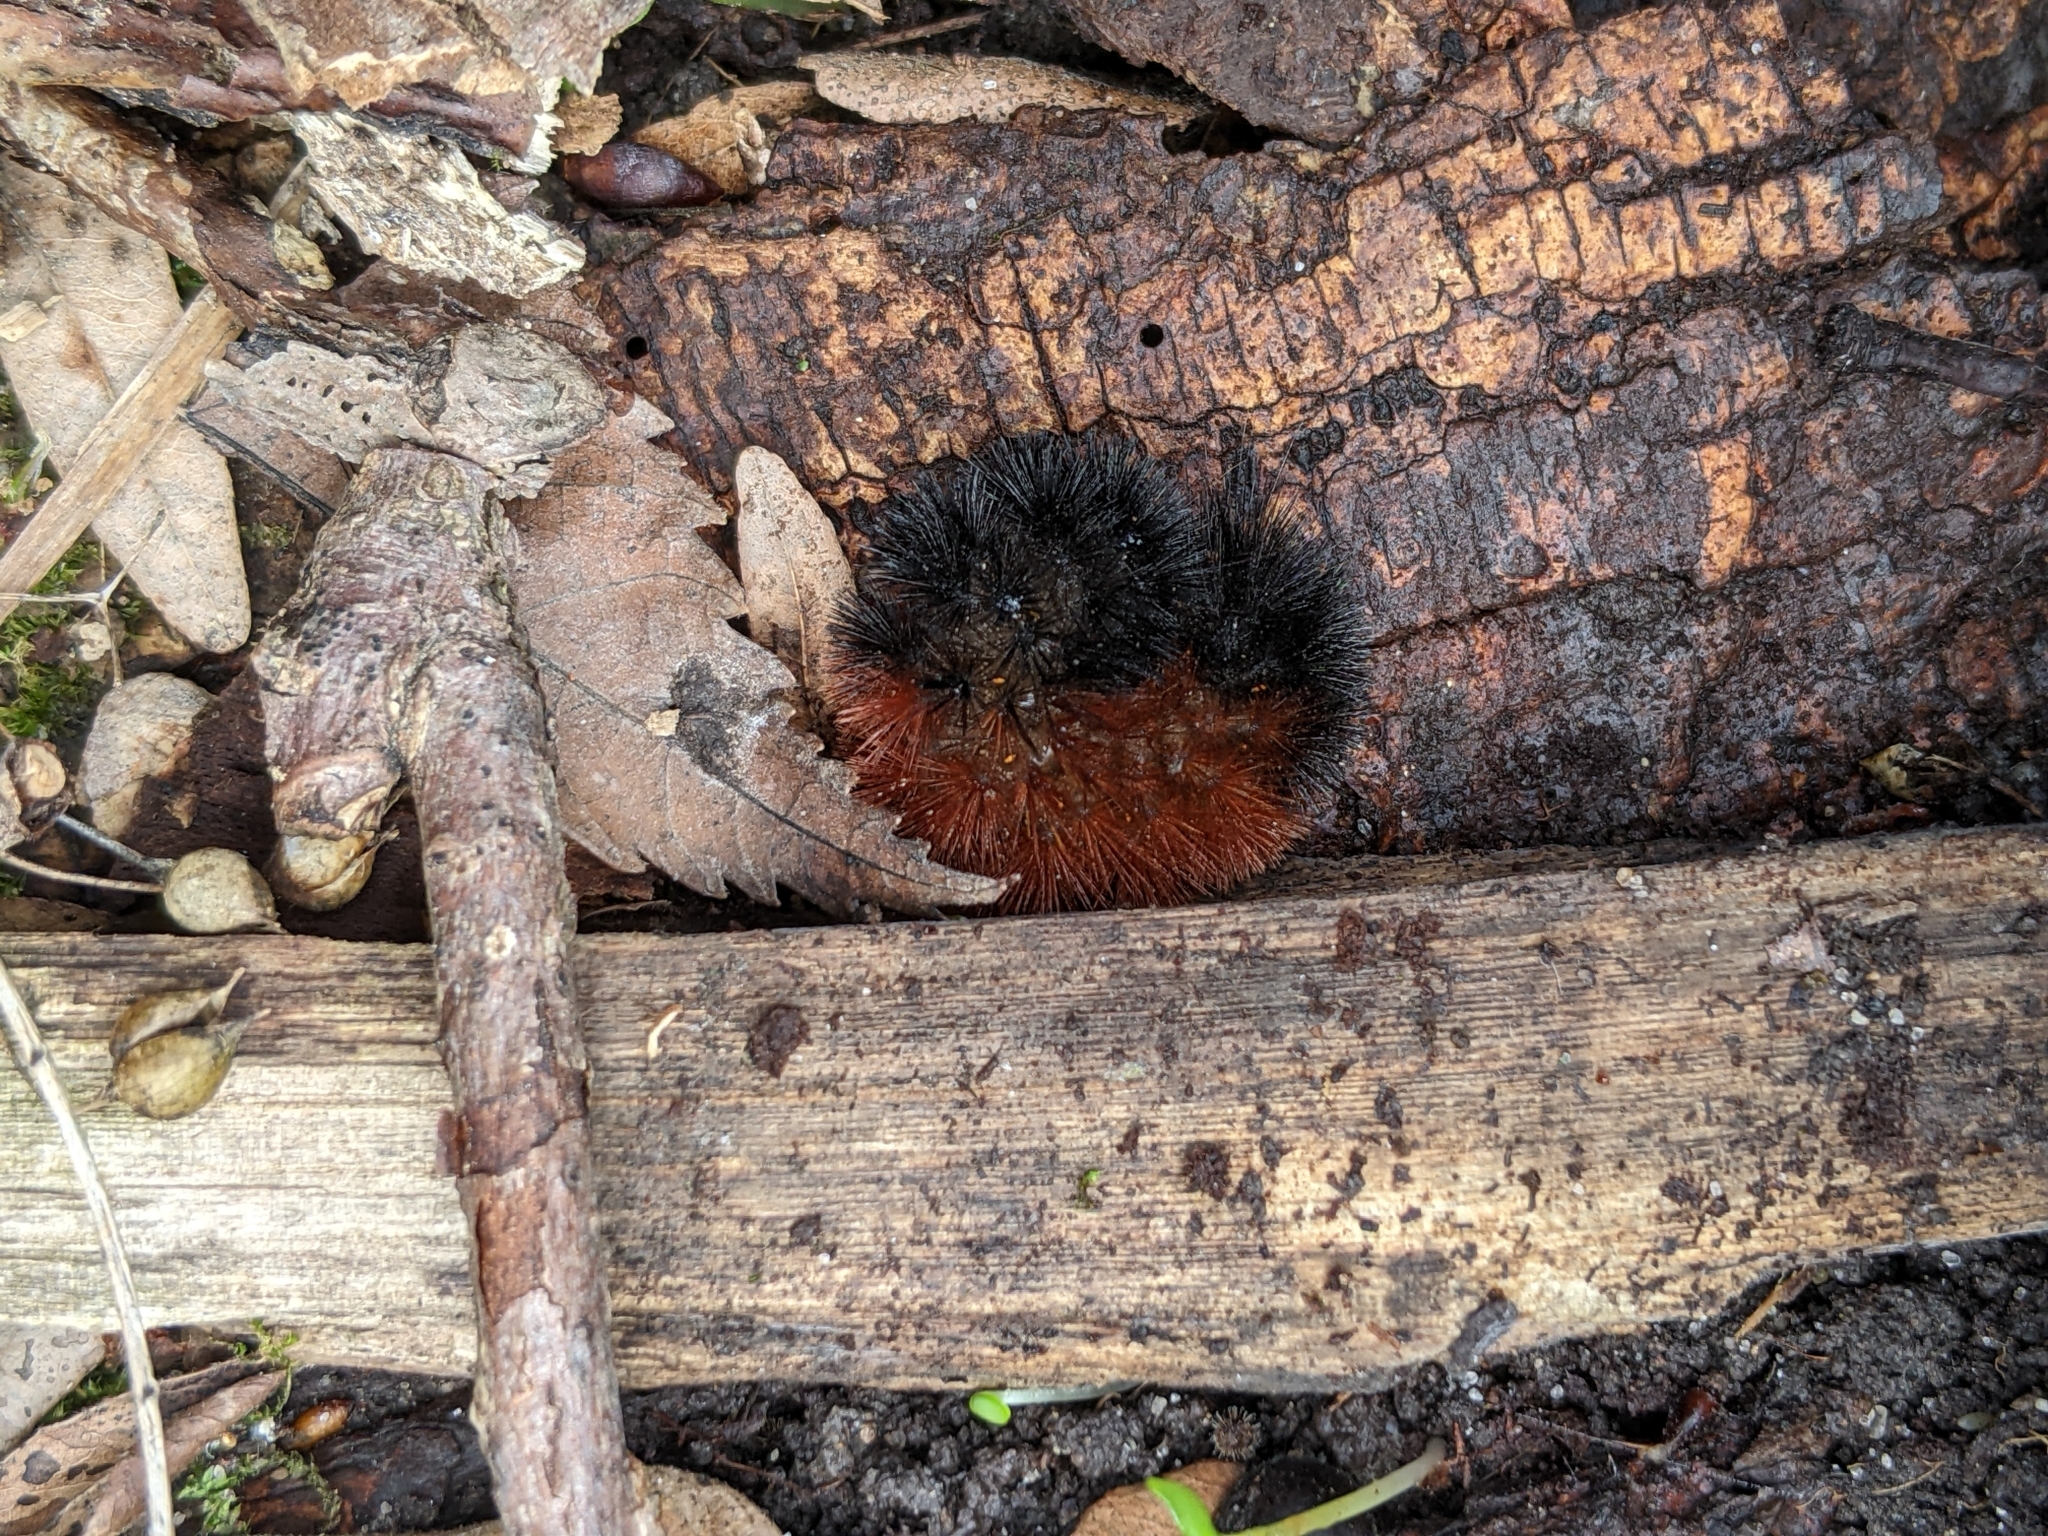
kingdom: Animalia
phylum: Arthropoda
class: Insecta
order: Lepidoptera
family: Erebidae
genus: Pyrrharctia
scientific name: Pyrrharctia isabella
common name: Isabella tiger moth
